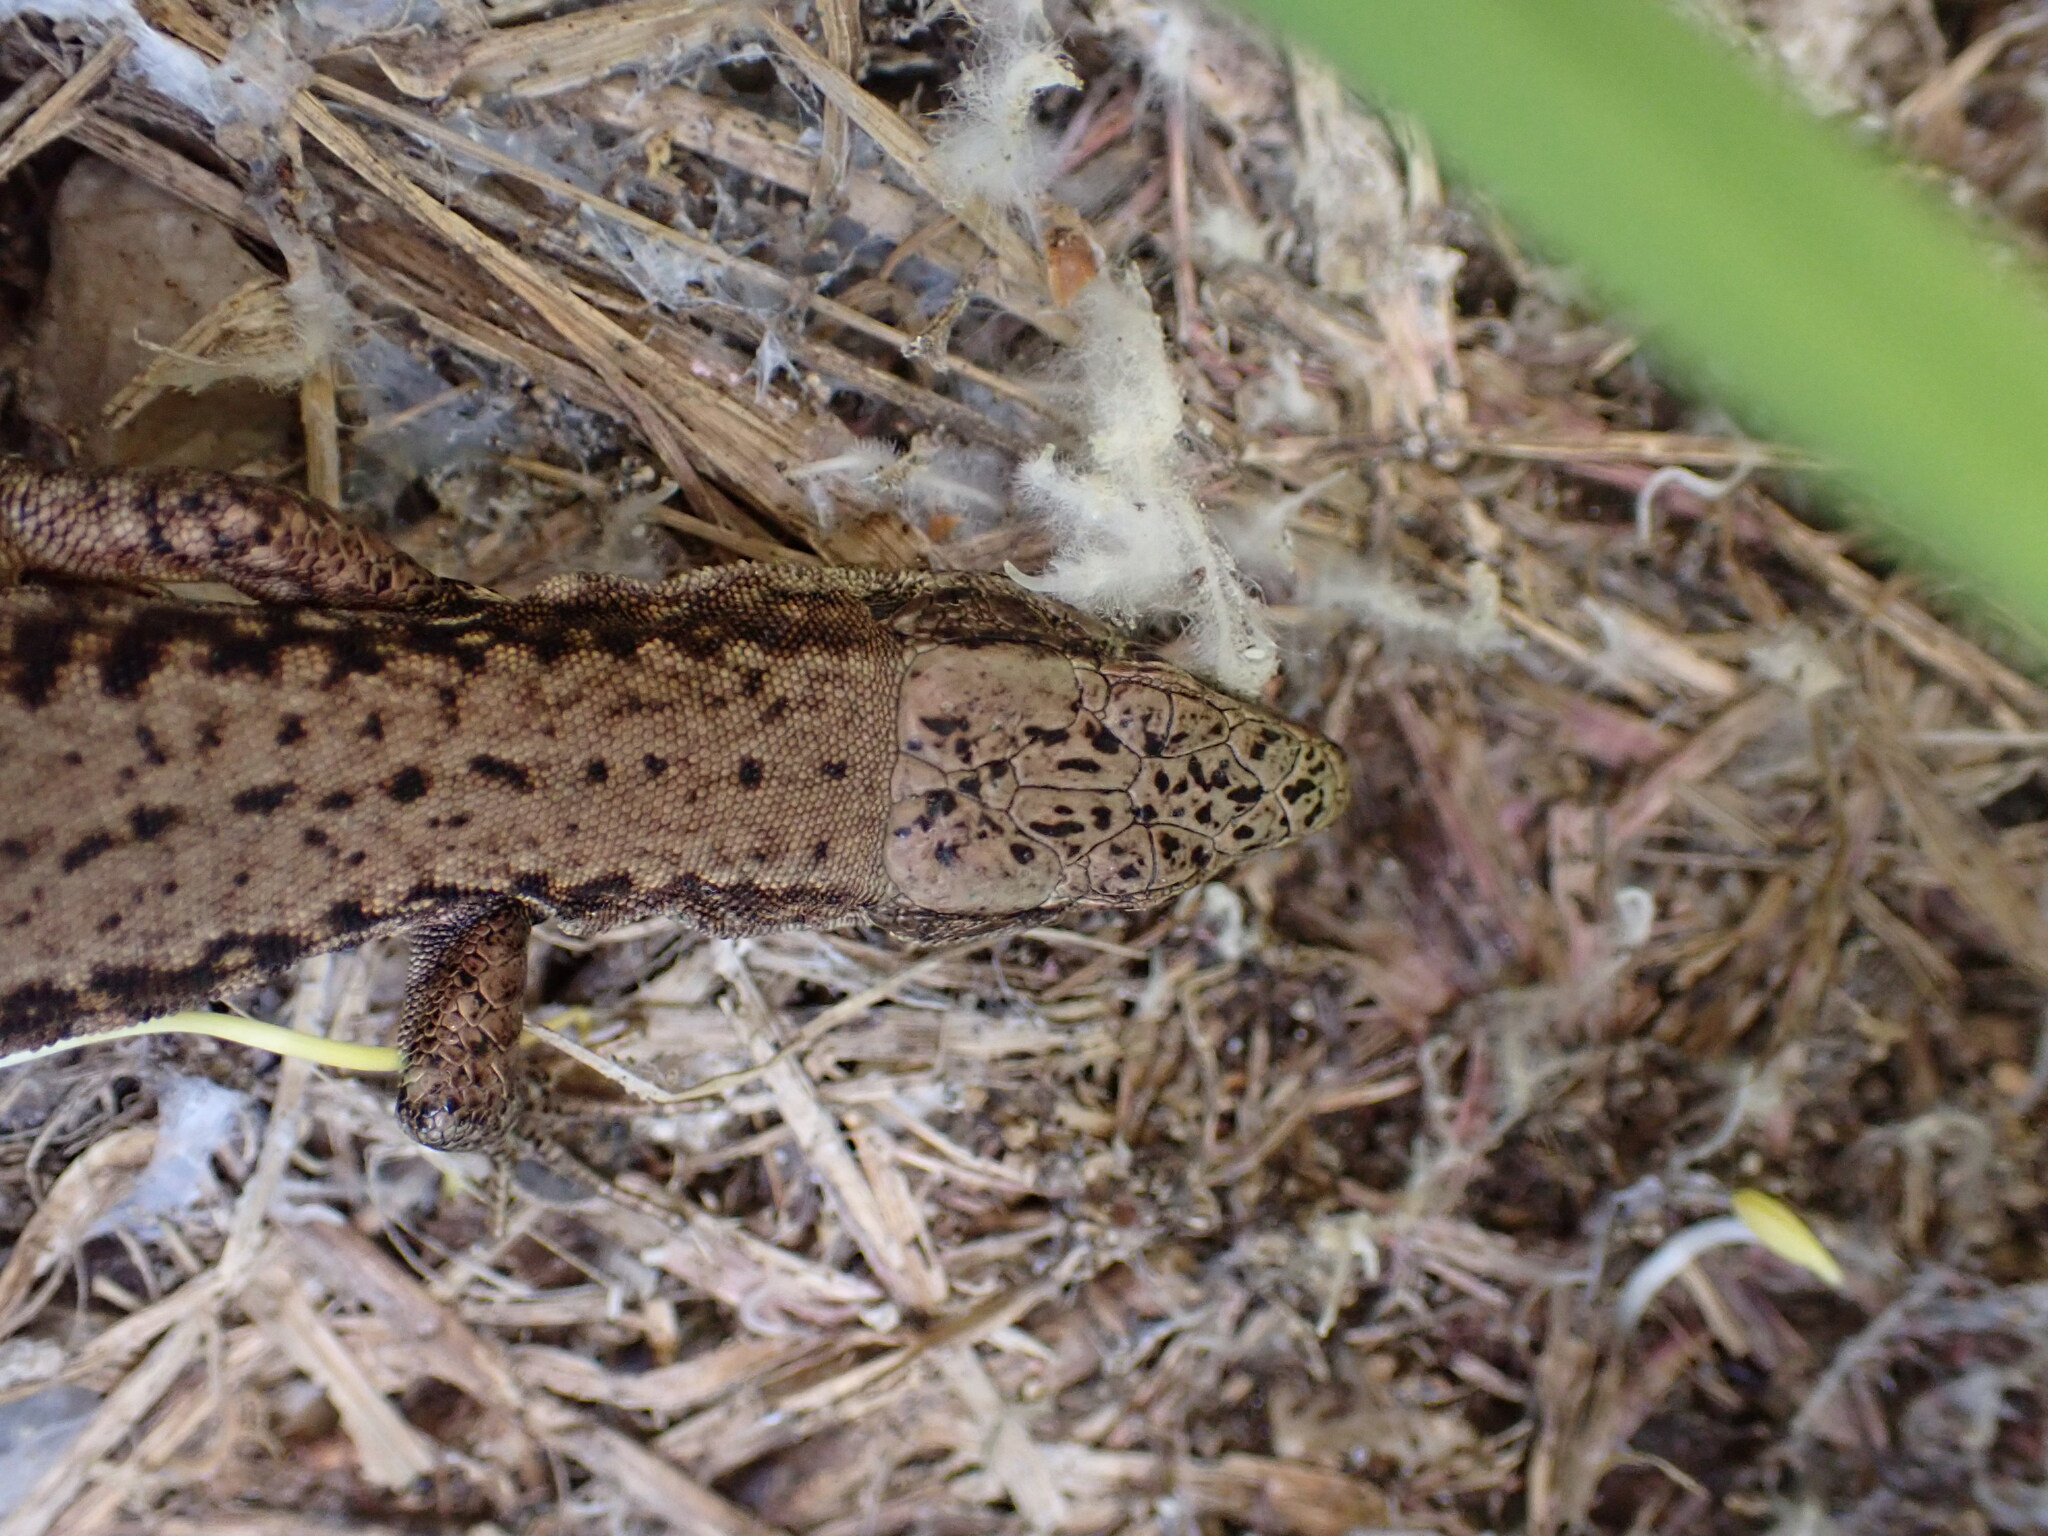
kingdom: Animalia
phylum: Chordata
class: Squamata
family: Lacertidae
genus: Podarcis
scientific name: Podarcis muralis
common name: Common wall lizard
